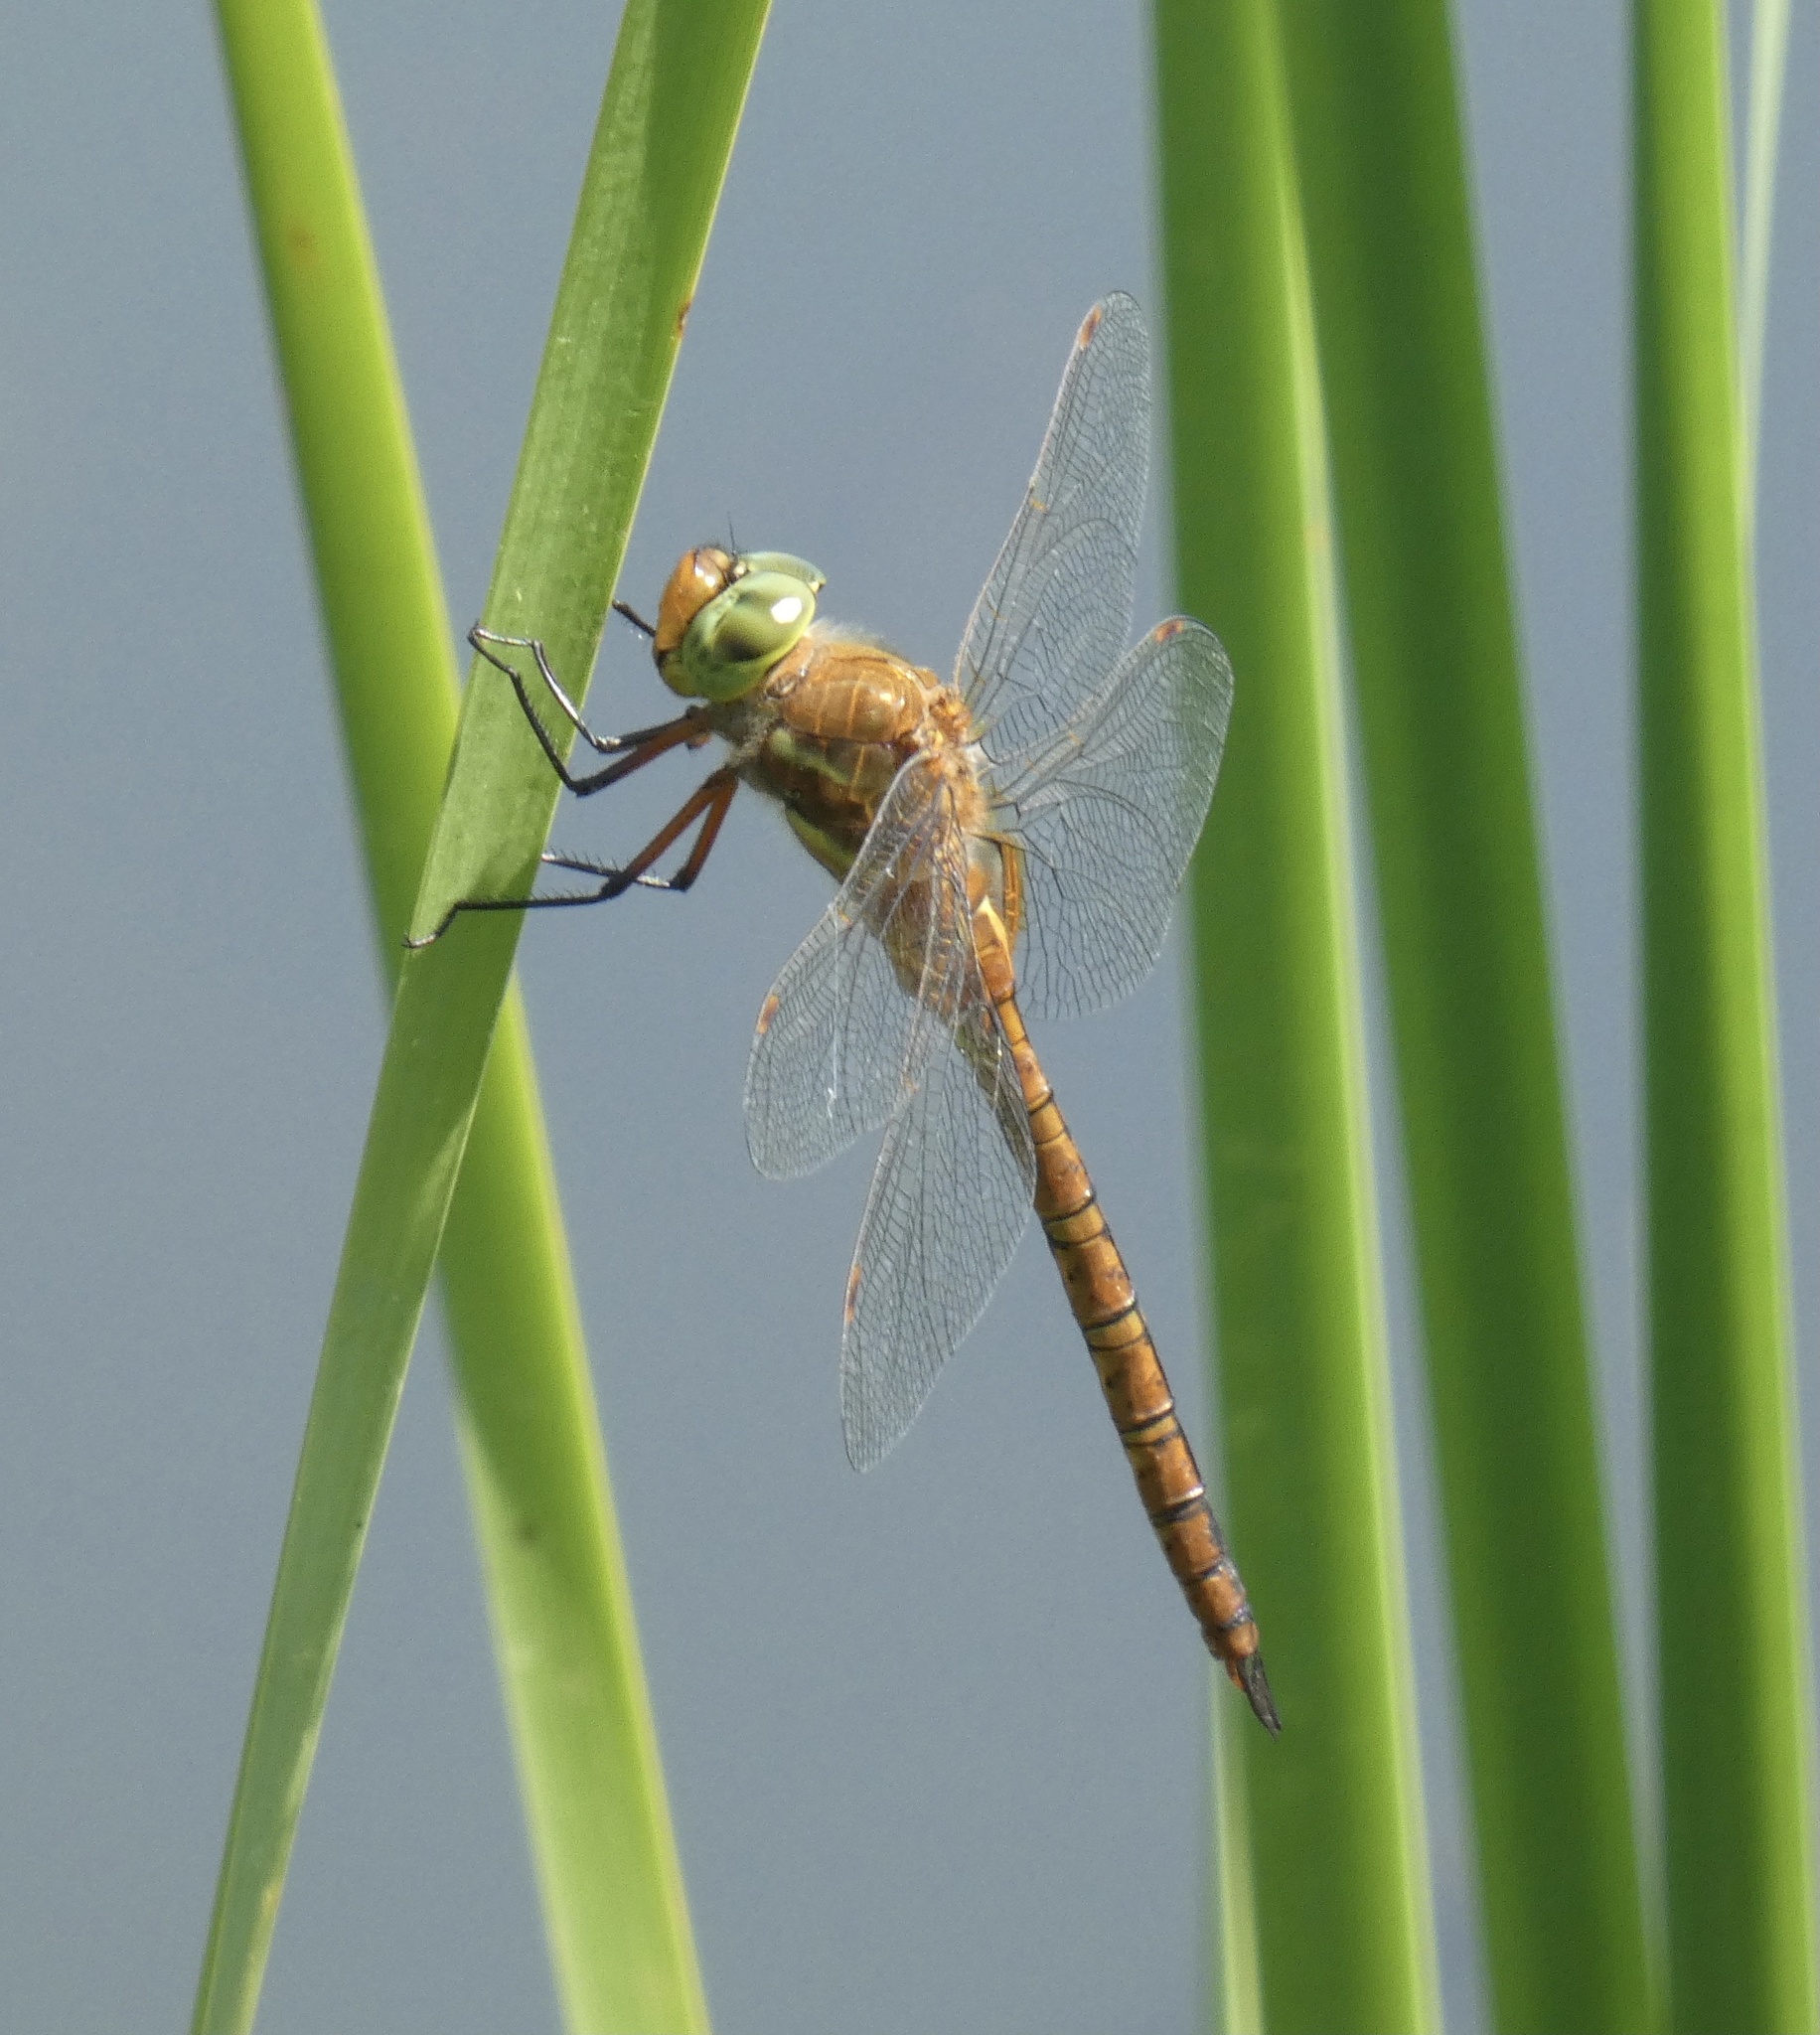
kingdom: Animalia
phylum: Arthropoda
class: Insecta
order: Odonata
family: Aeshnidae
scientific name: Aeshnidae
